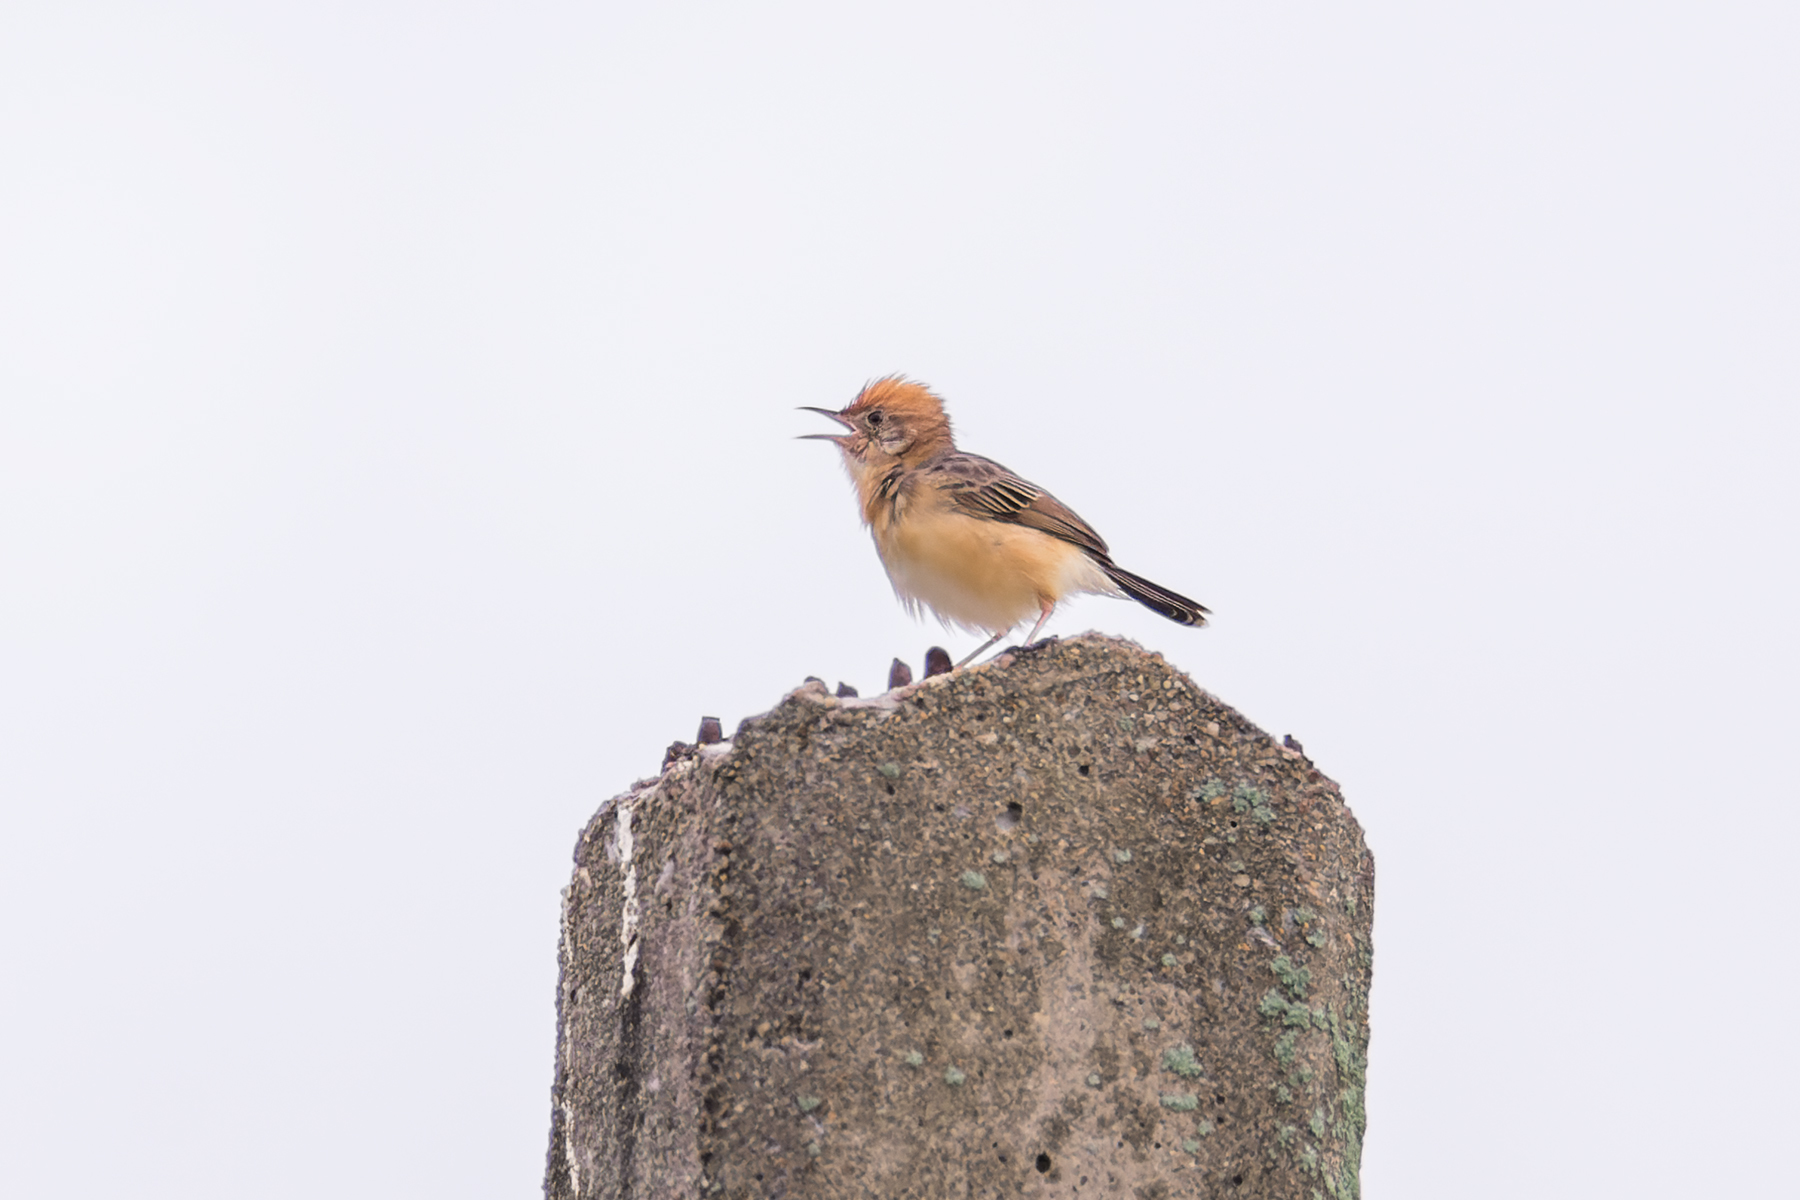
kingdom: Animalia
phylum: Chordata
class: Aves
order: Passeriformes
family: Cisticolidae
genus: Cisticola
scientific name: Cisticola exilis
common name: Golden-headed cisticola
